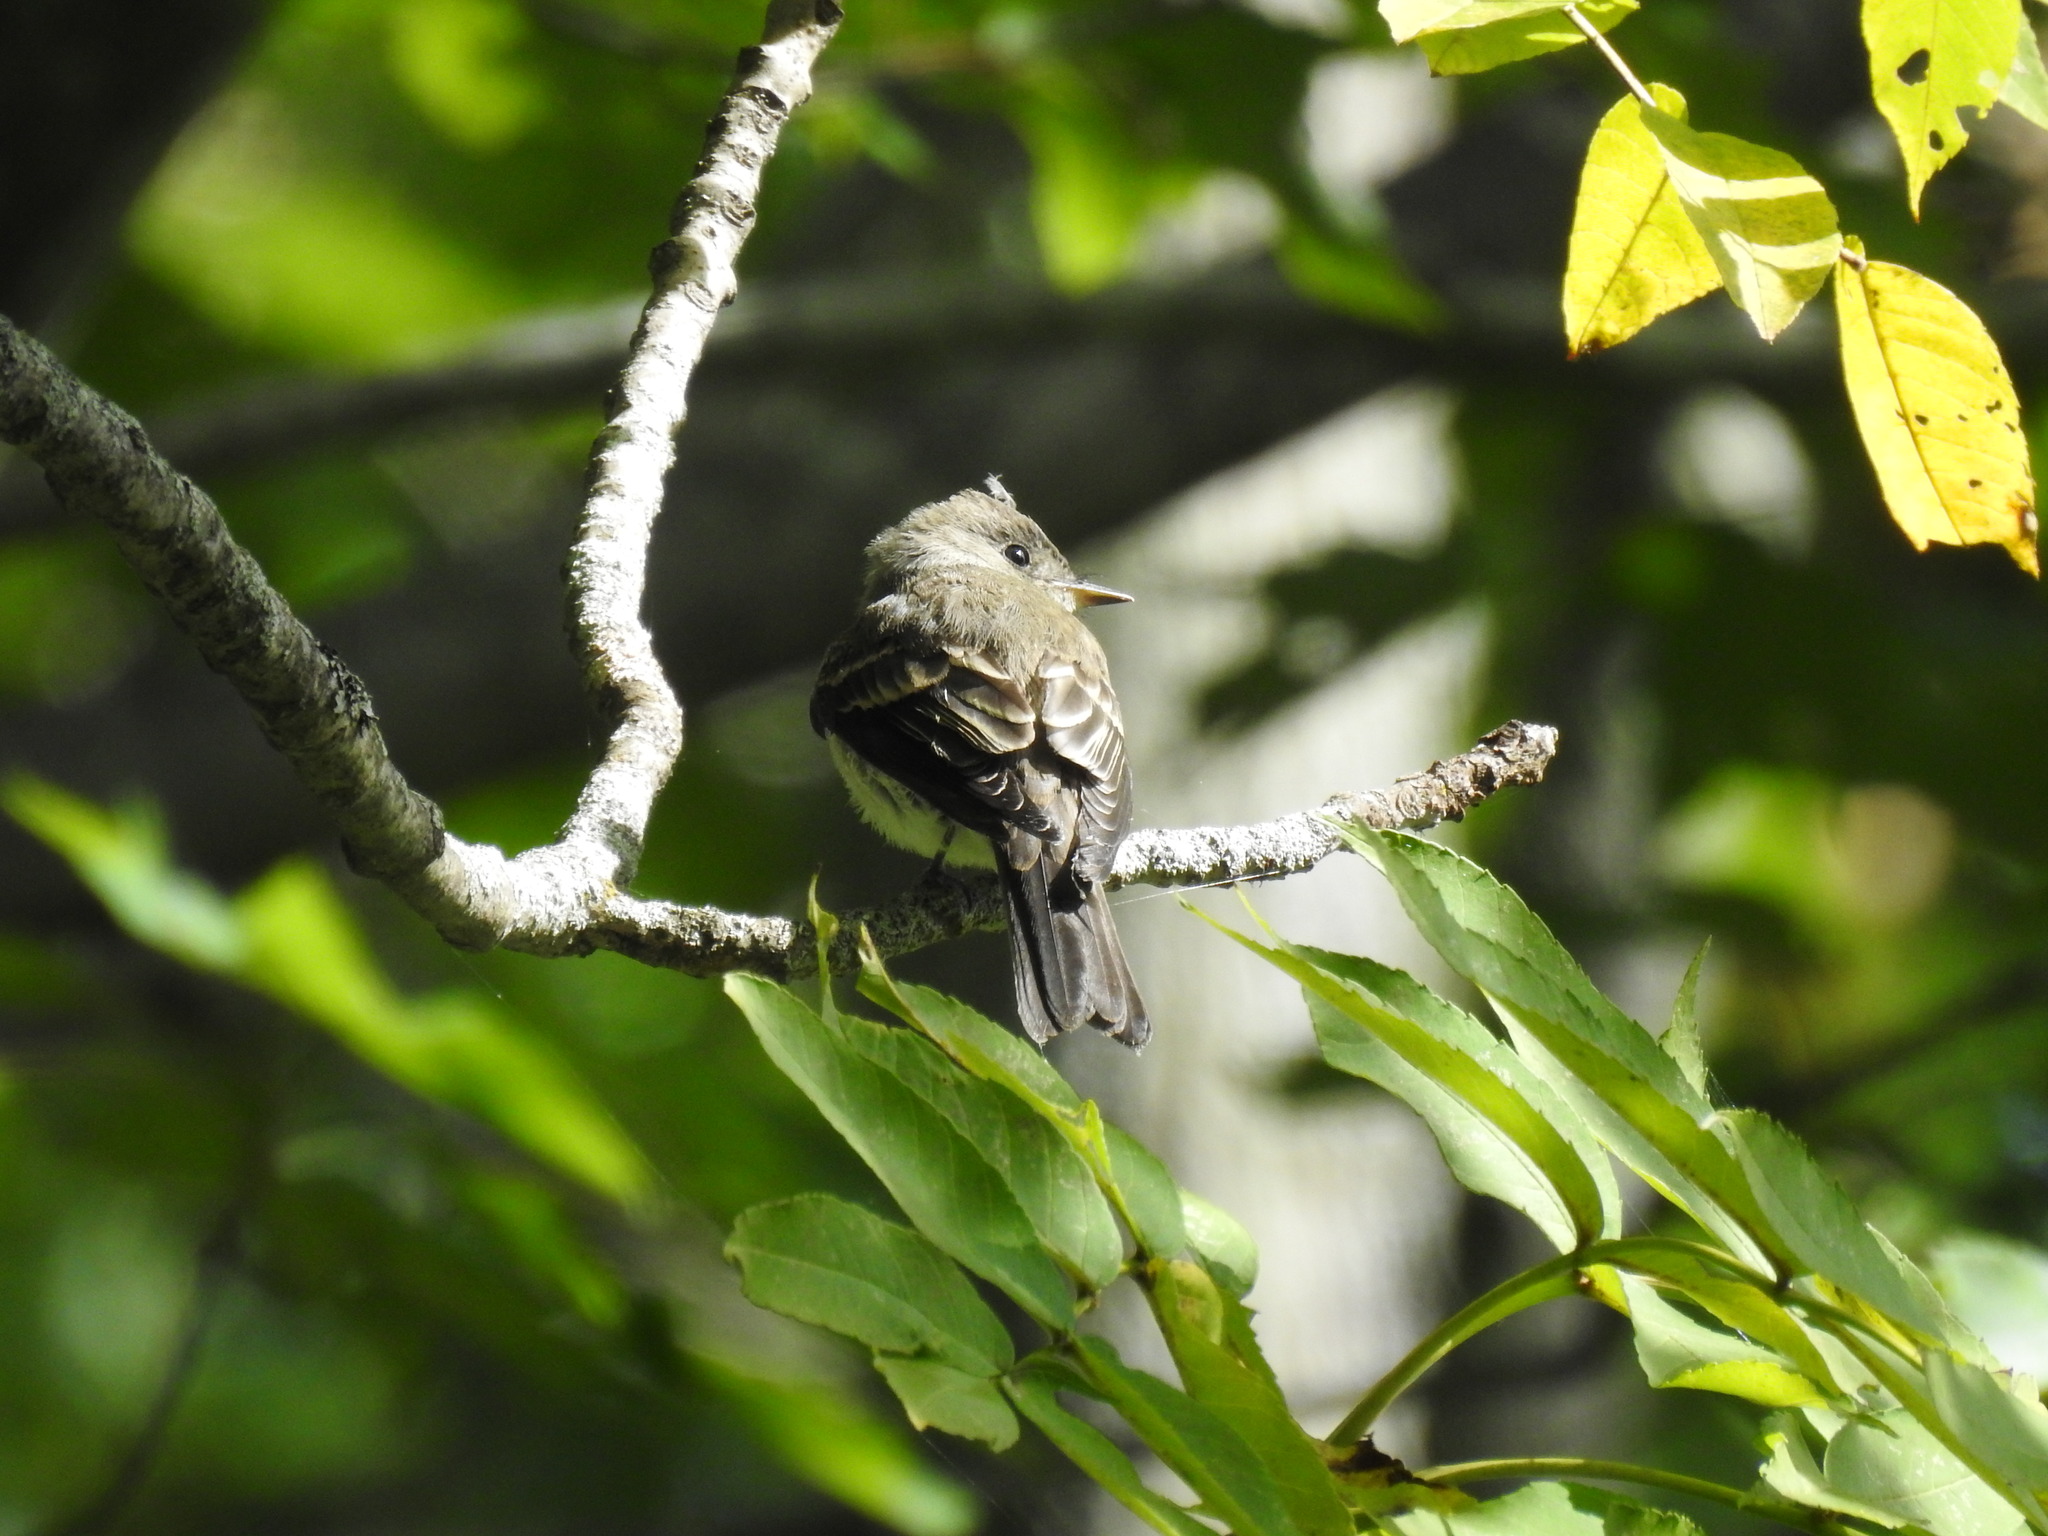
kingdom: Animalia
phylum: Chordata
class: Aves
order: Passeriformes
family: Tyrannidae
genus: Contopus
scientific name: Contopus virens
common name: Eastern wood-pewee
